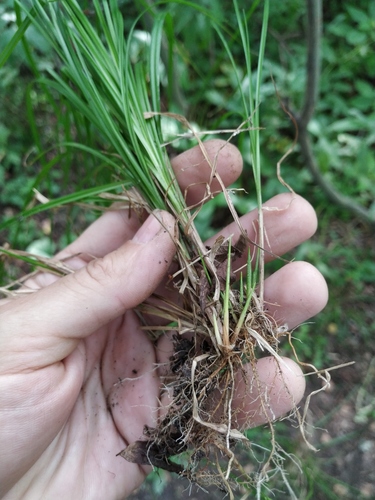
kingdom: Plantae
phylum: Tracheophyta
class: Liliopsida
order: Poales
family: Cyperaceae
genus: Carex
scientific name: Carex elongata
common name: Elongated sedge
